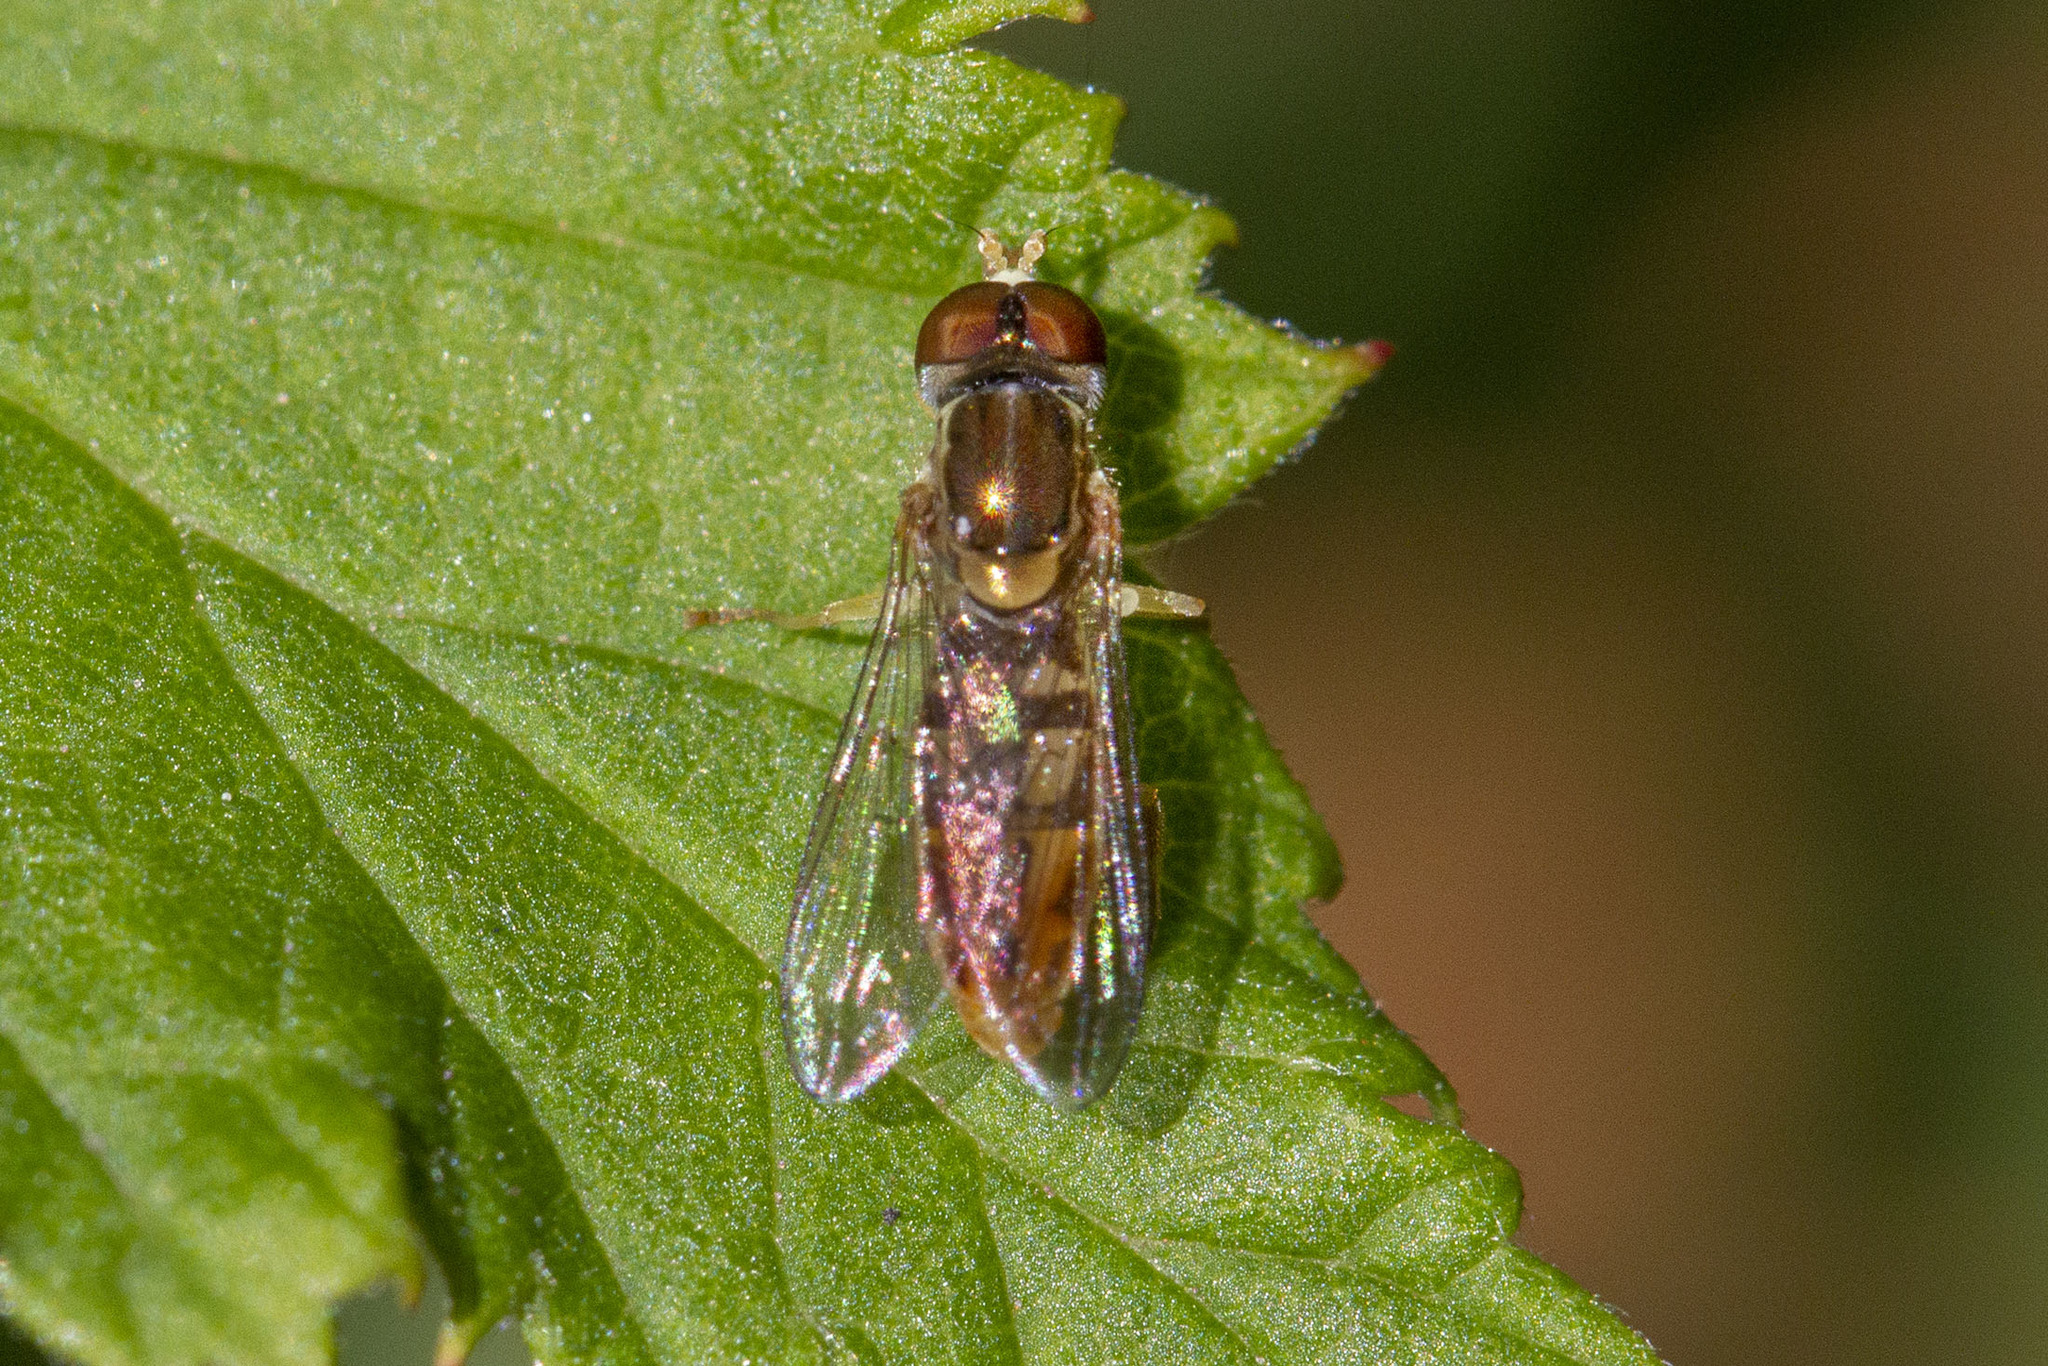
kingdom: Animalia
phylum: Arthropoda
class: Insecta
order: Diptera
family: Syrphidae
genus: Toxomerus
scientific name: Toxomerus marginatus
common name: Syrphid fly
